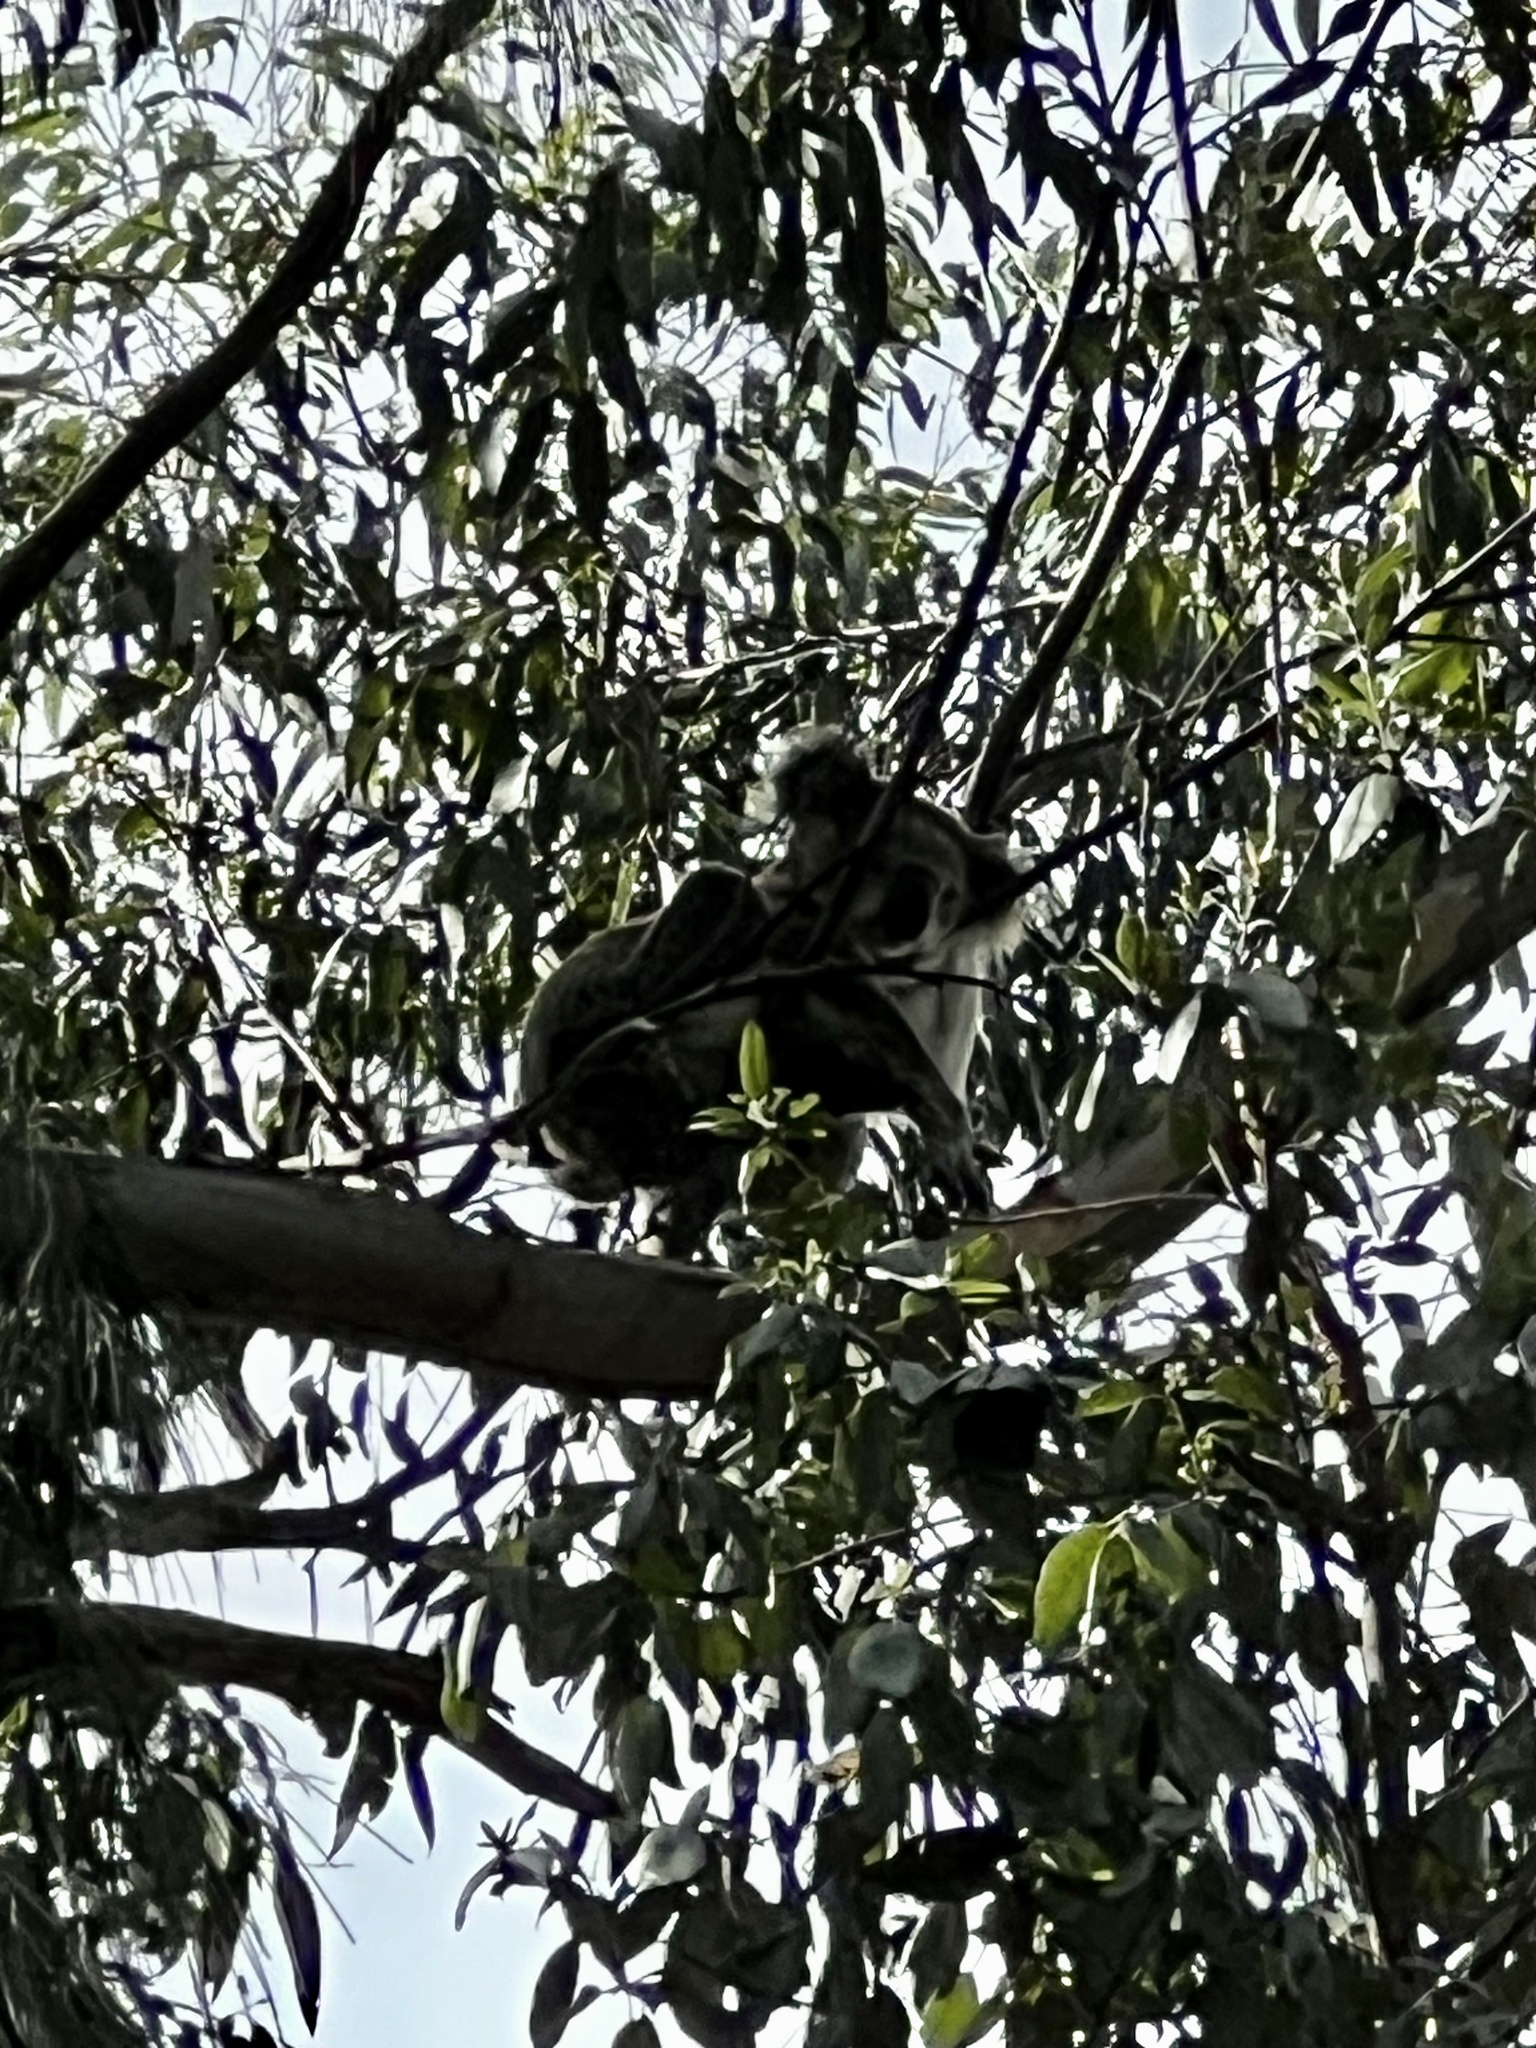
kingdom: Animalia
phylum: Chordata
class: Mammalia
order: Diprotodontia
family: Phascolarctidae
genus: Phascolarctos
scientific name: Phascolarctos cinereus
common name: Koala
